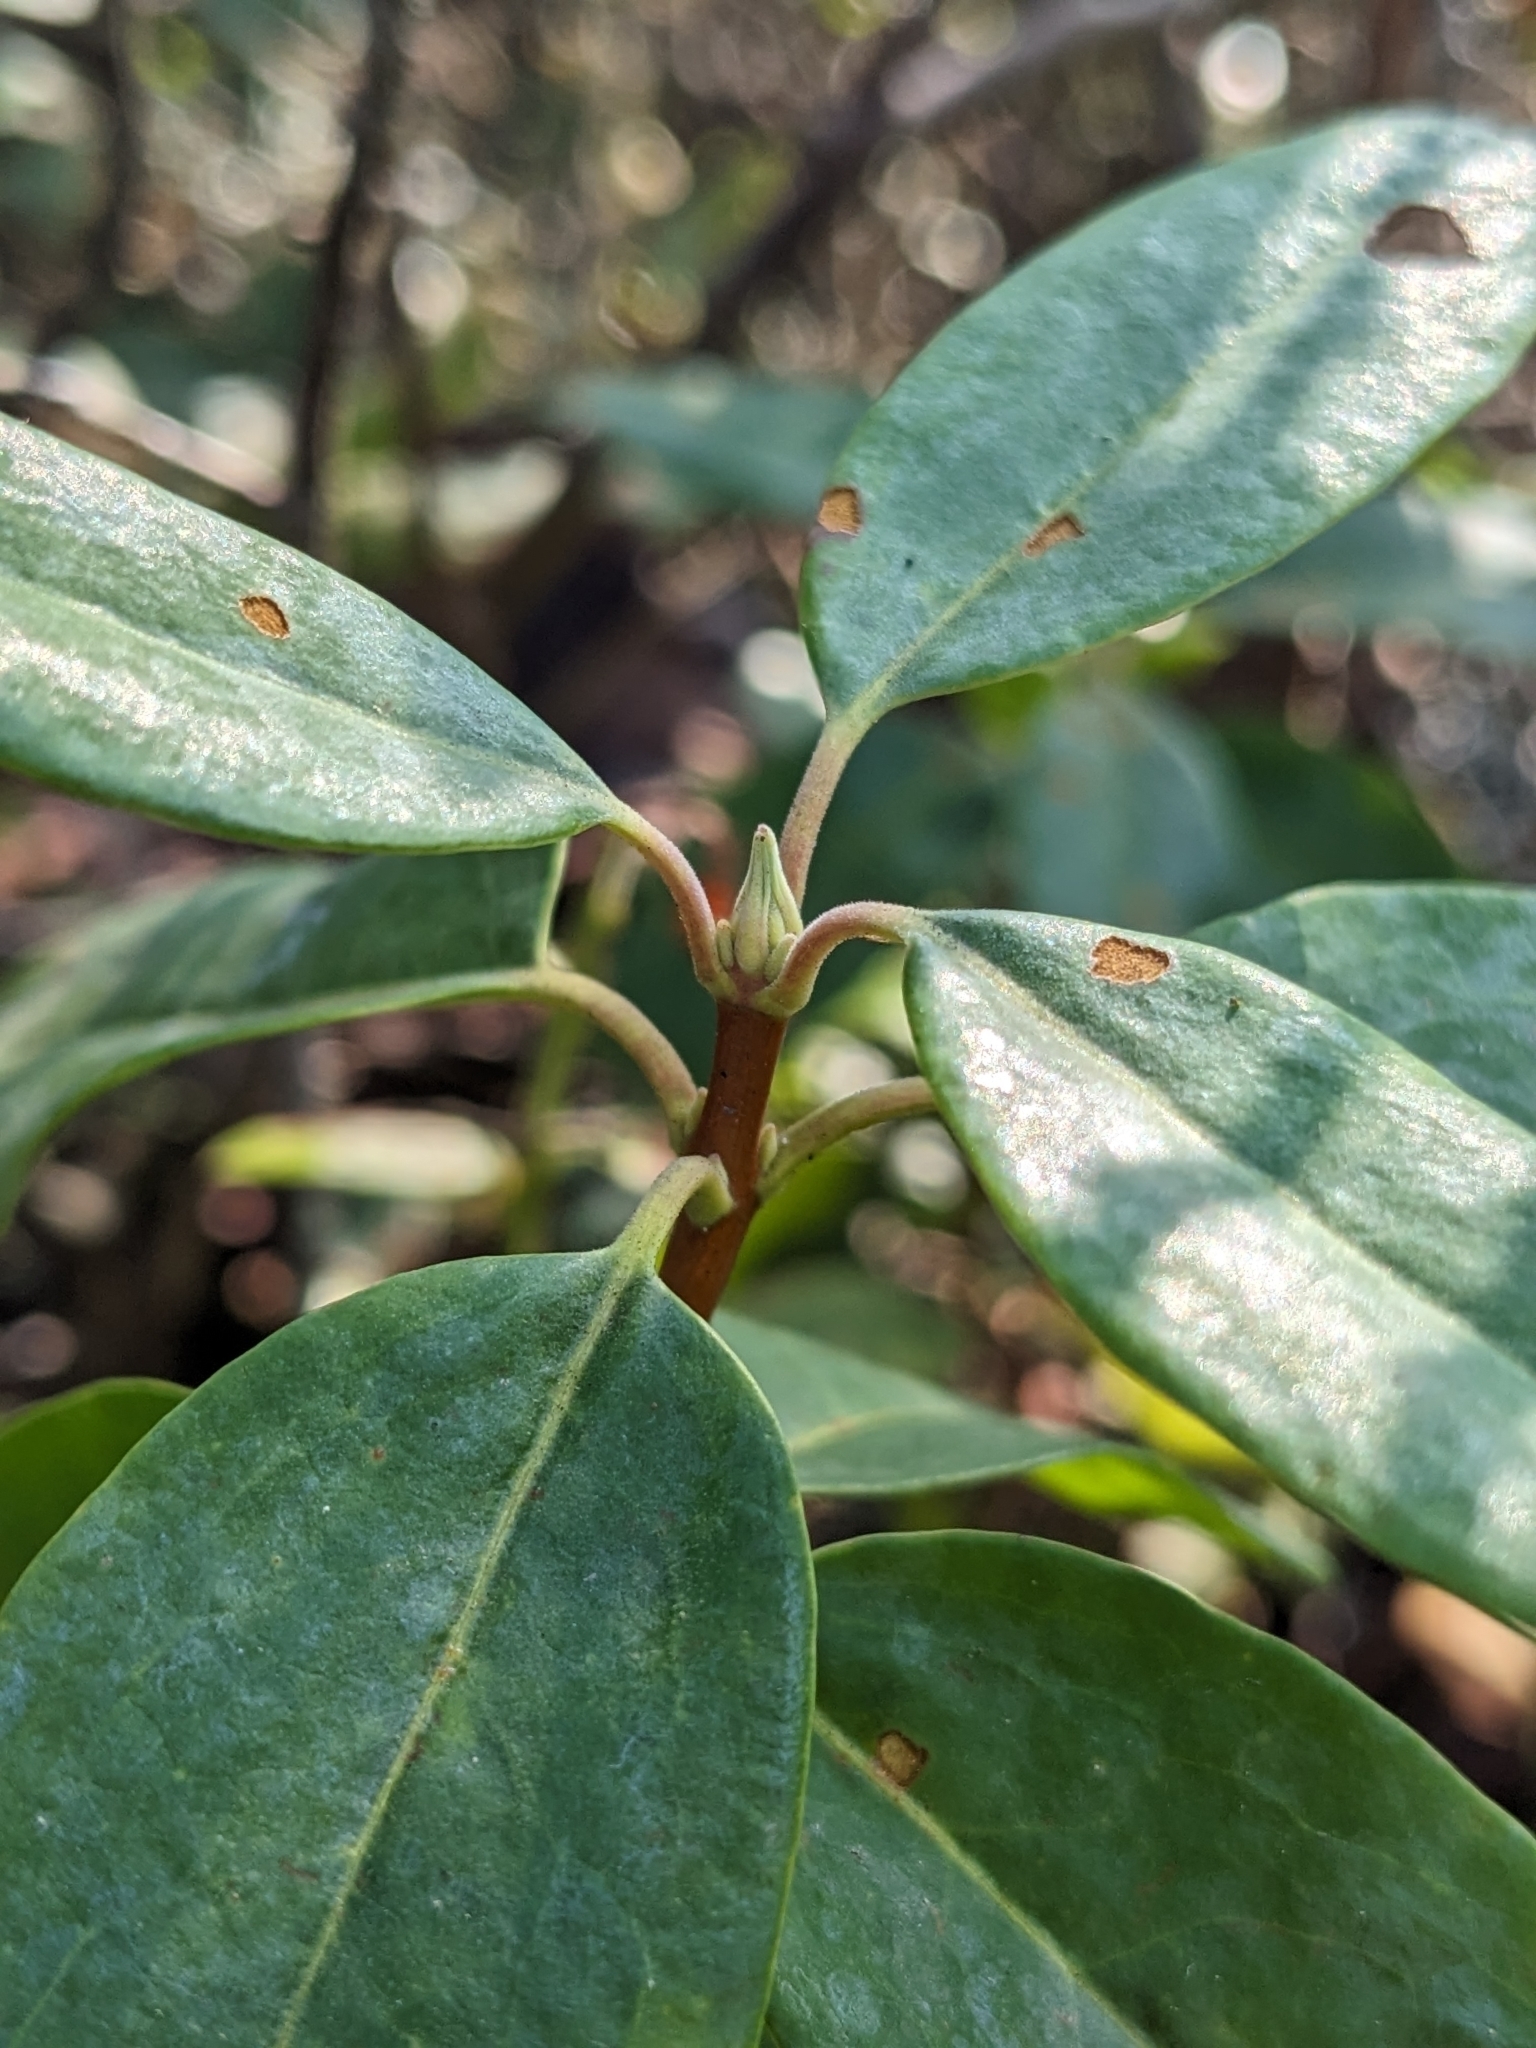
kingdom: Plantae
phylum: Tracheophyta
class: Magnoliopsida
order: Ericales
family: Ericaceae
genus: Kalmia
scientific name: Kalmia angustifolia
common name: Sheep-laurel
